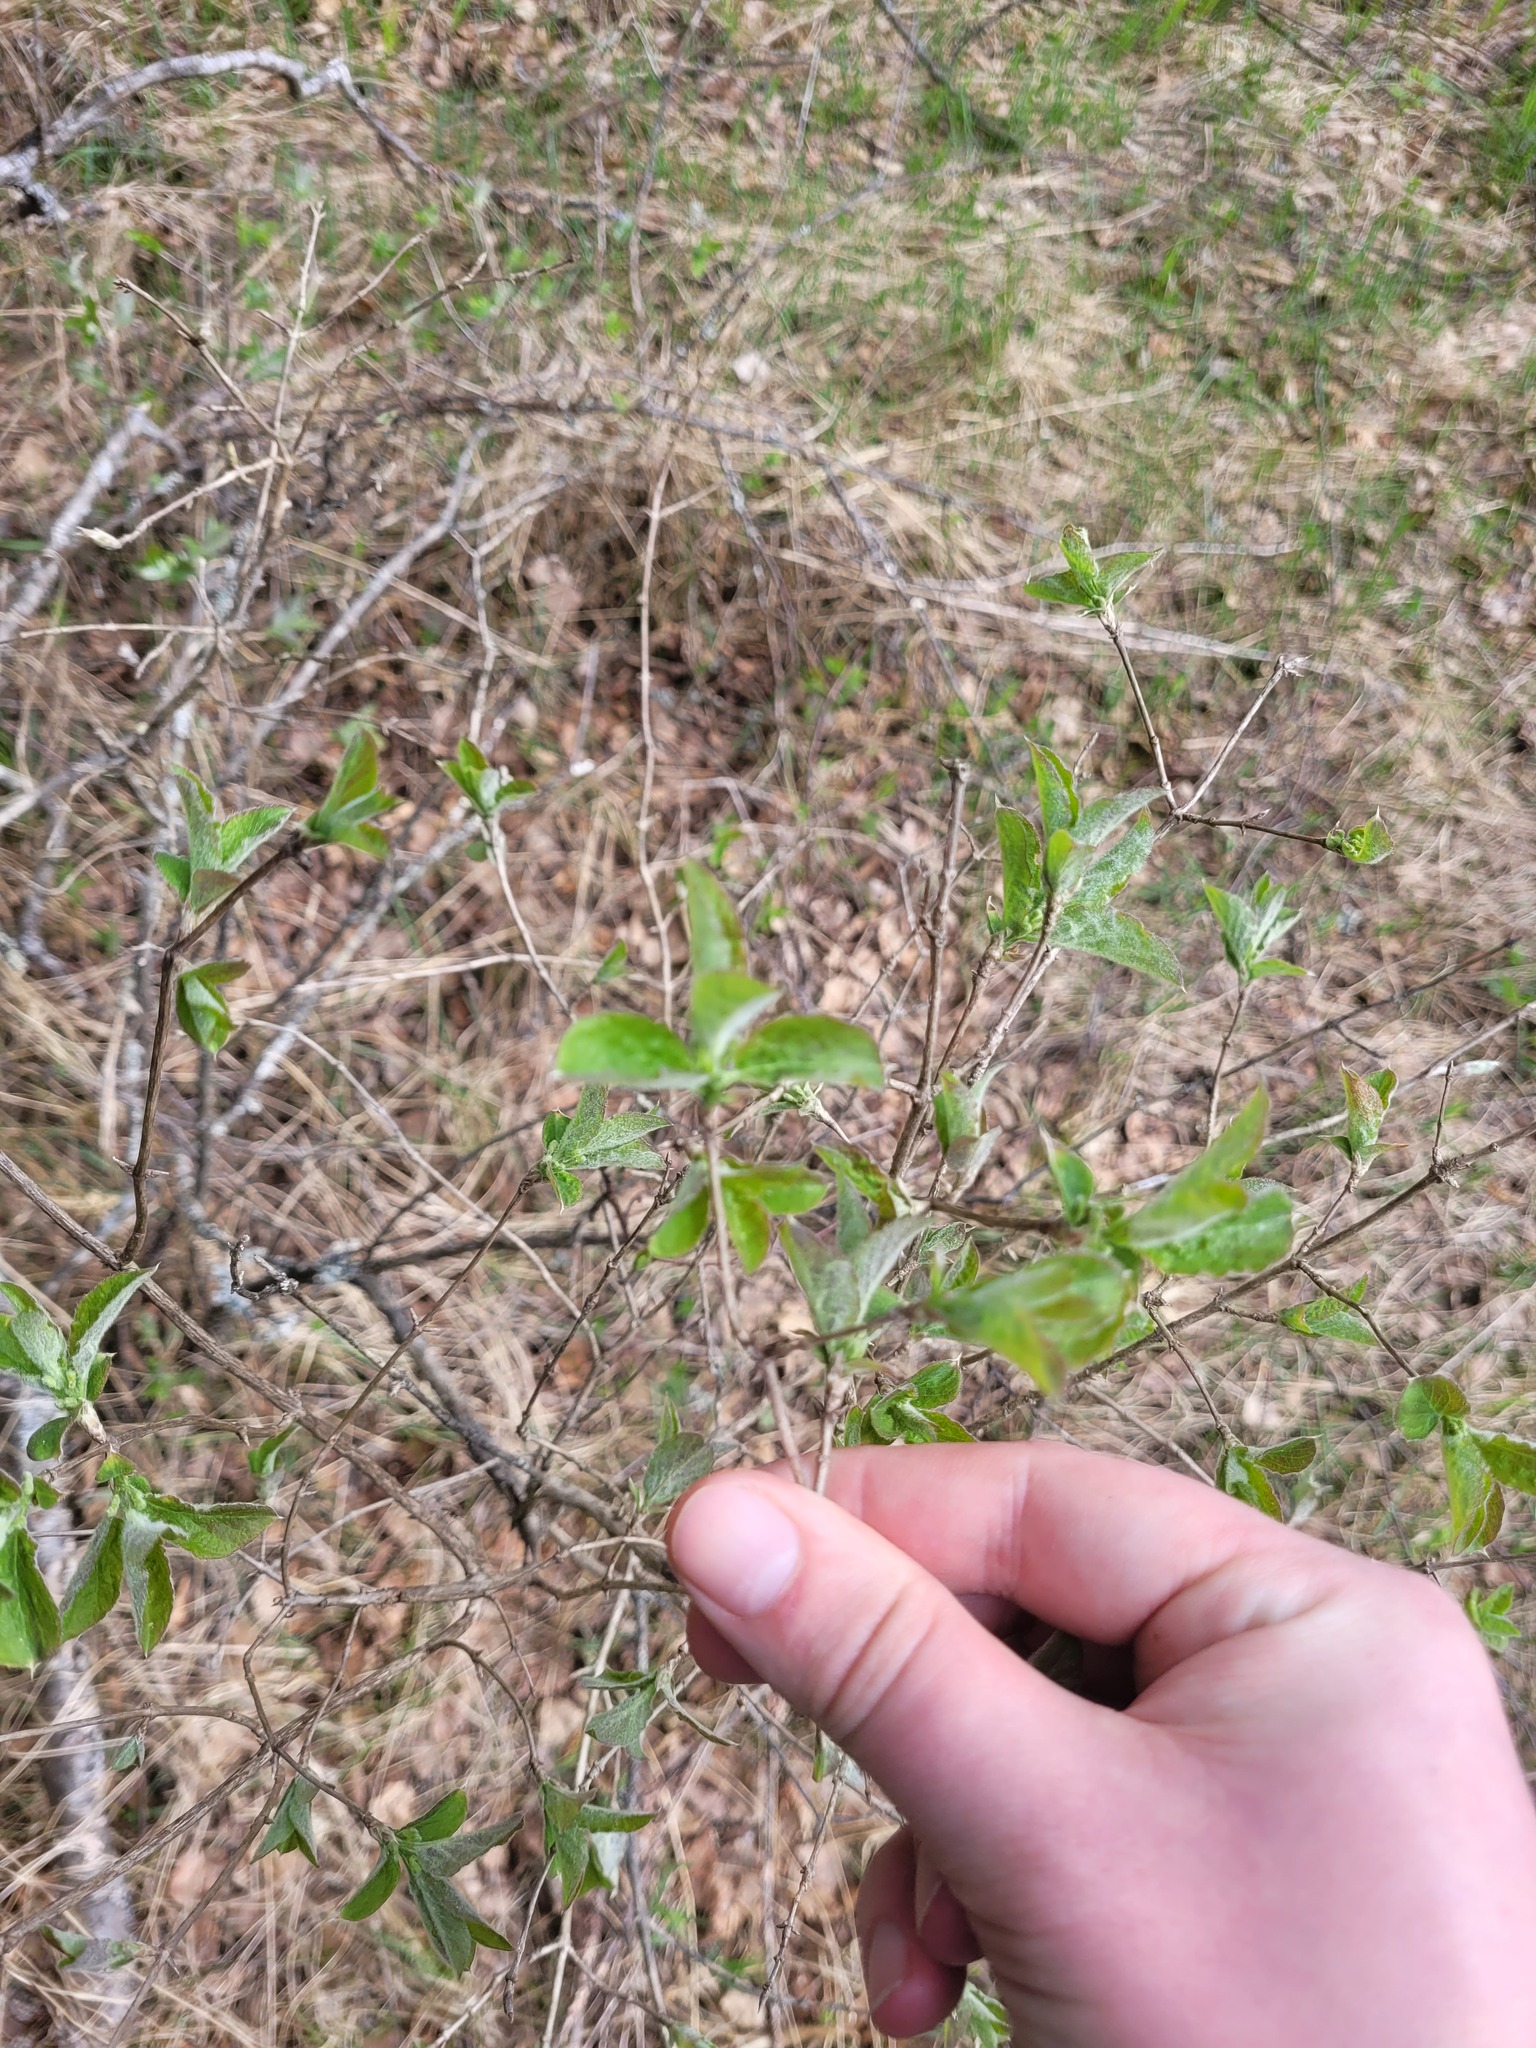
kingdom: Plantae
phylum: Tracheophyta
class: Magnoliopsida
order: Dipsacales
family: Caprifoliaceae
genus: Lonicera
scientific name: Lonicera xylosteum
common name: Fly honeysuckle
